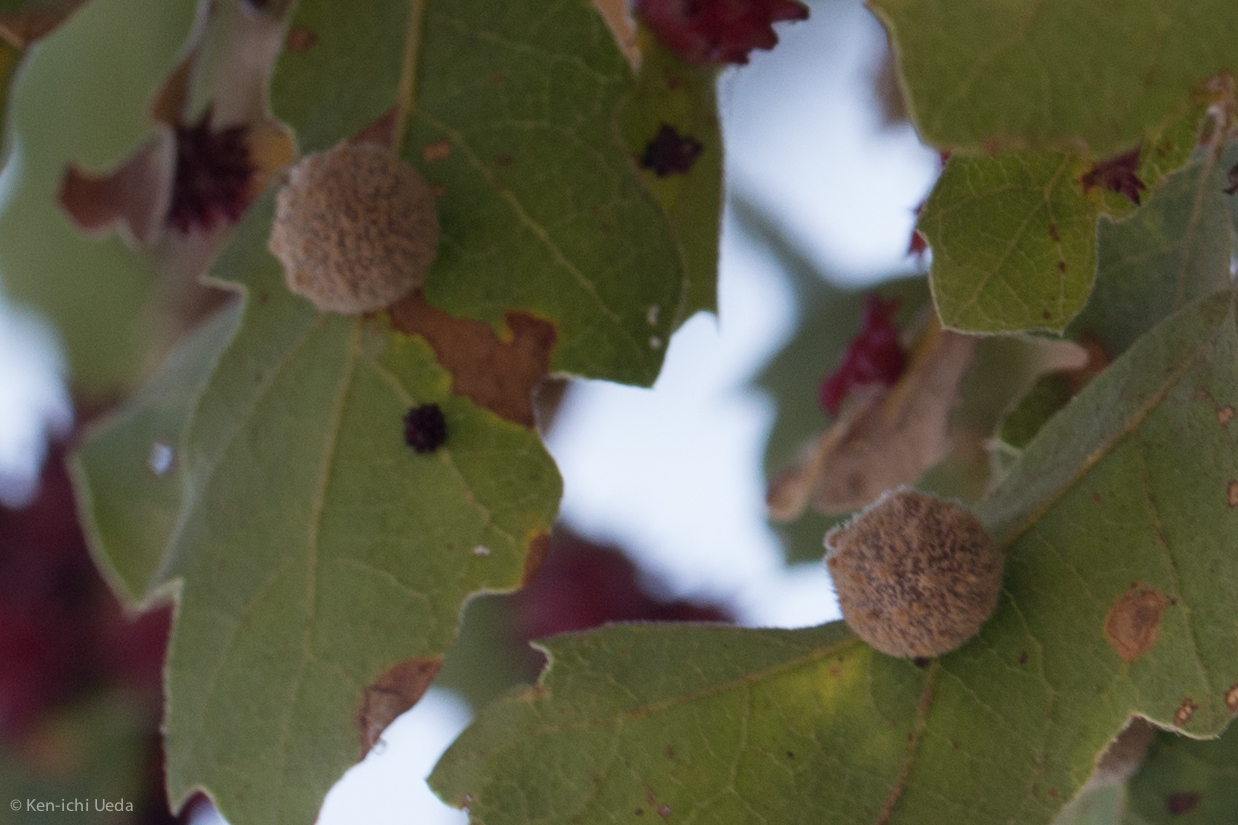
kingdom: Animalia
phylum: Arthropoda
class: Insecta
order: Hymenoptera
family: Cynipidae
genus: Cynips
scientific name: Cynips
